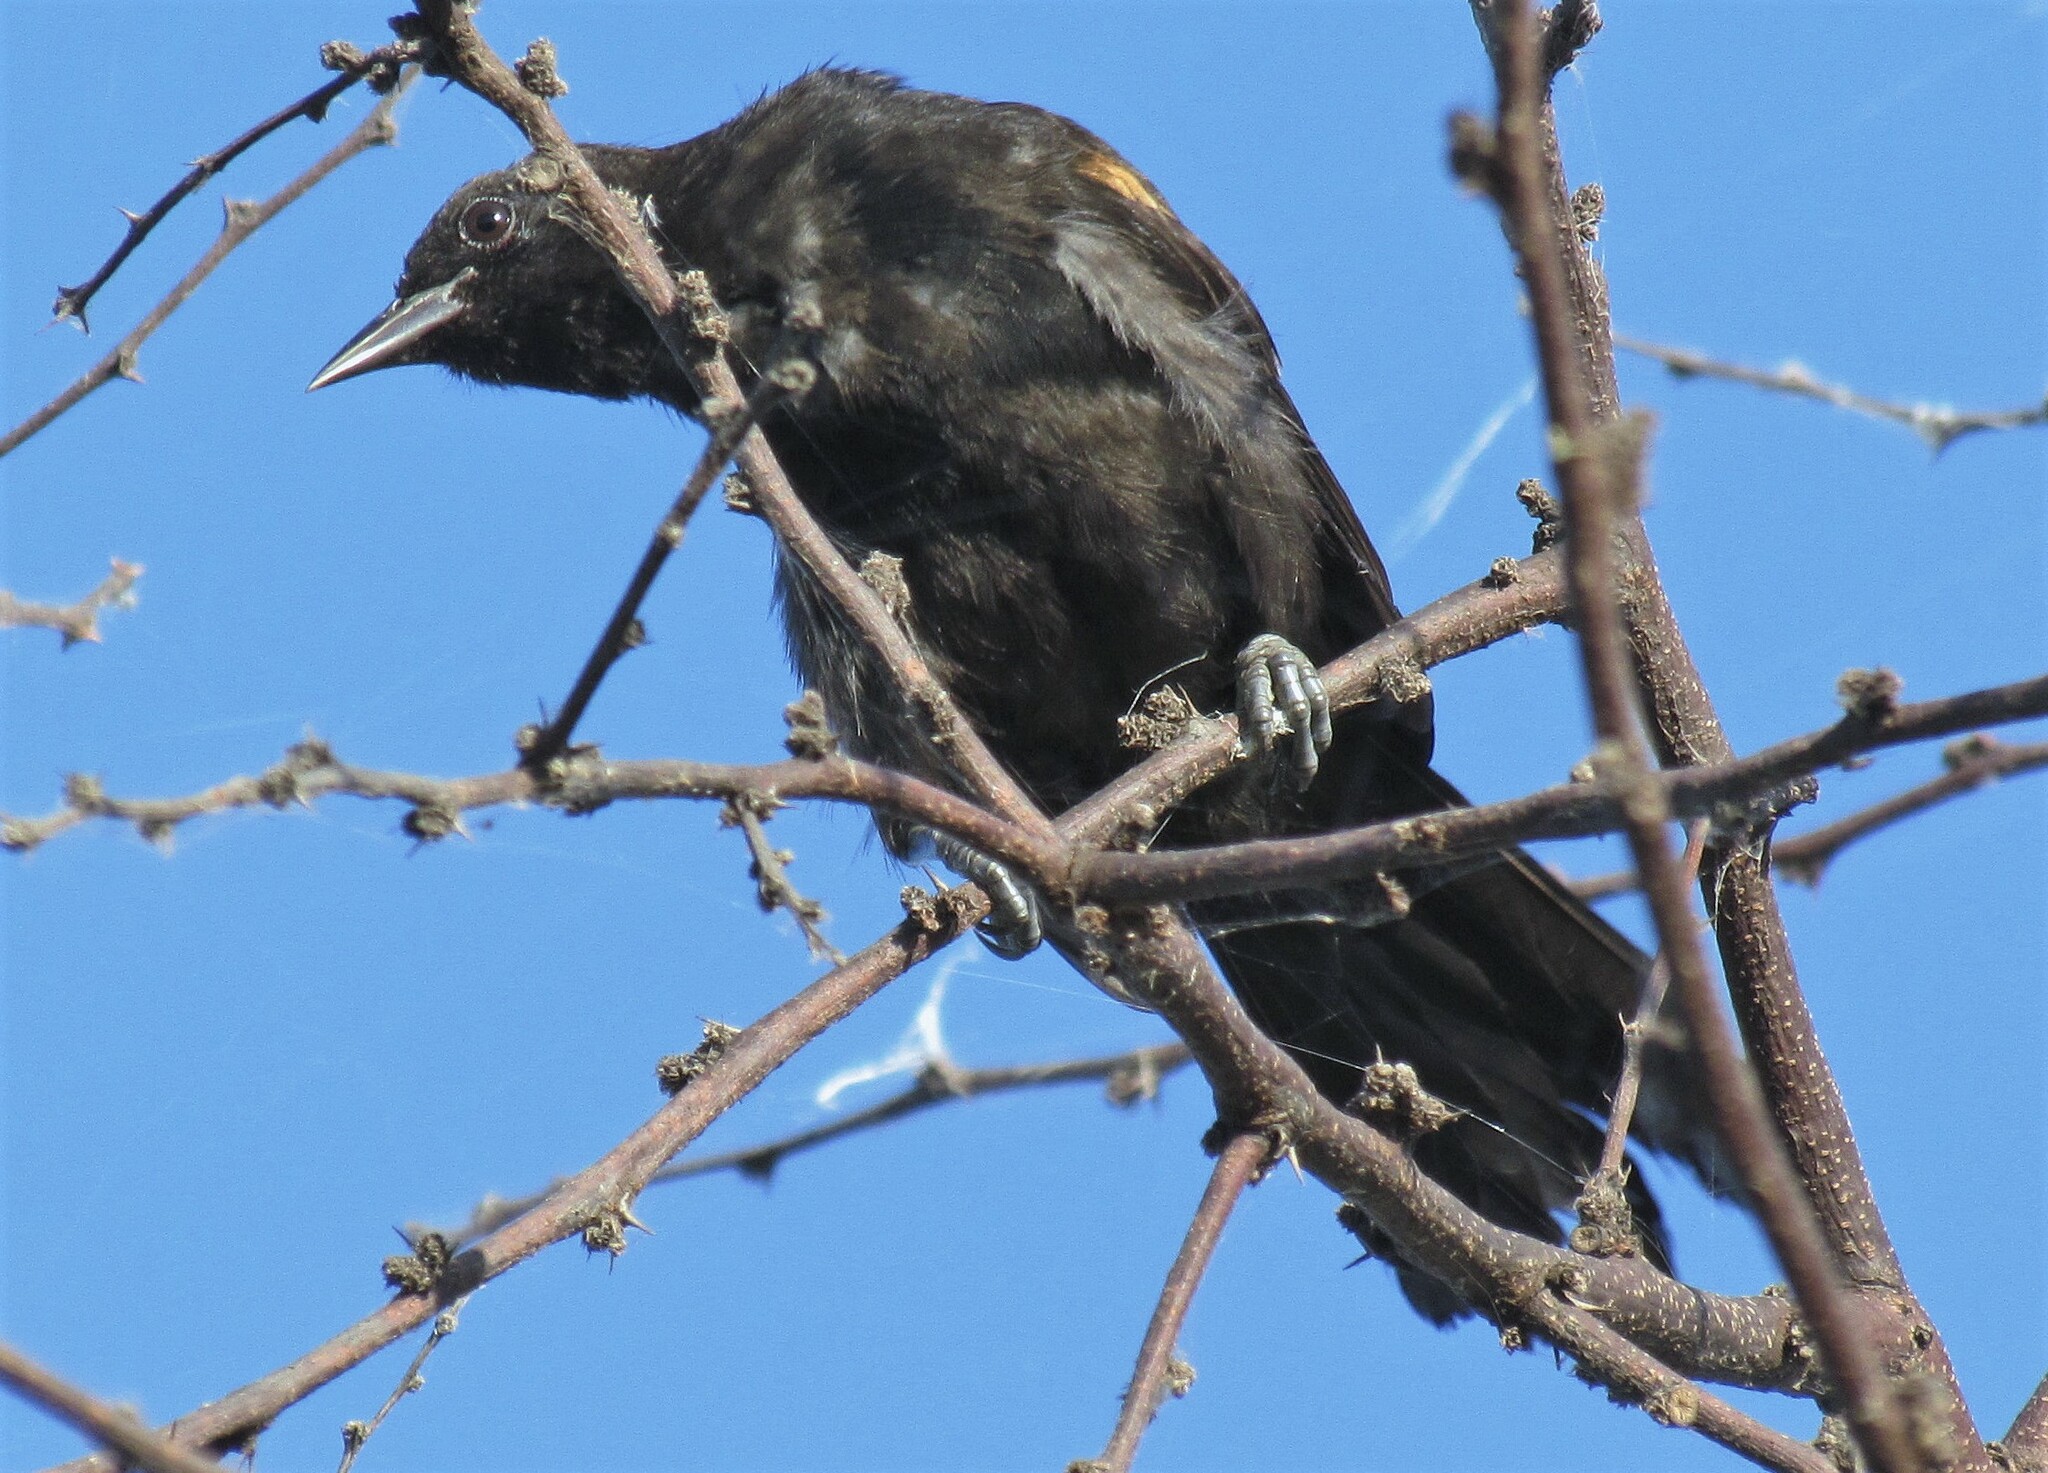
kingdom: Animalia
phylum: Chordata
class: Aves
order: Passeriformes
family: Icteridae
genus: Icterus
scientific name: Icterus cayanensis
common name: Epaulet oriole
